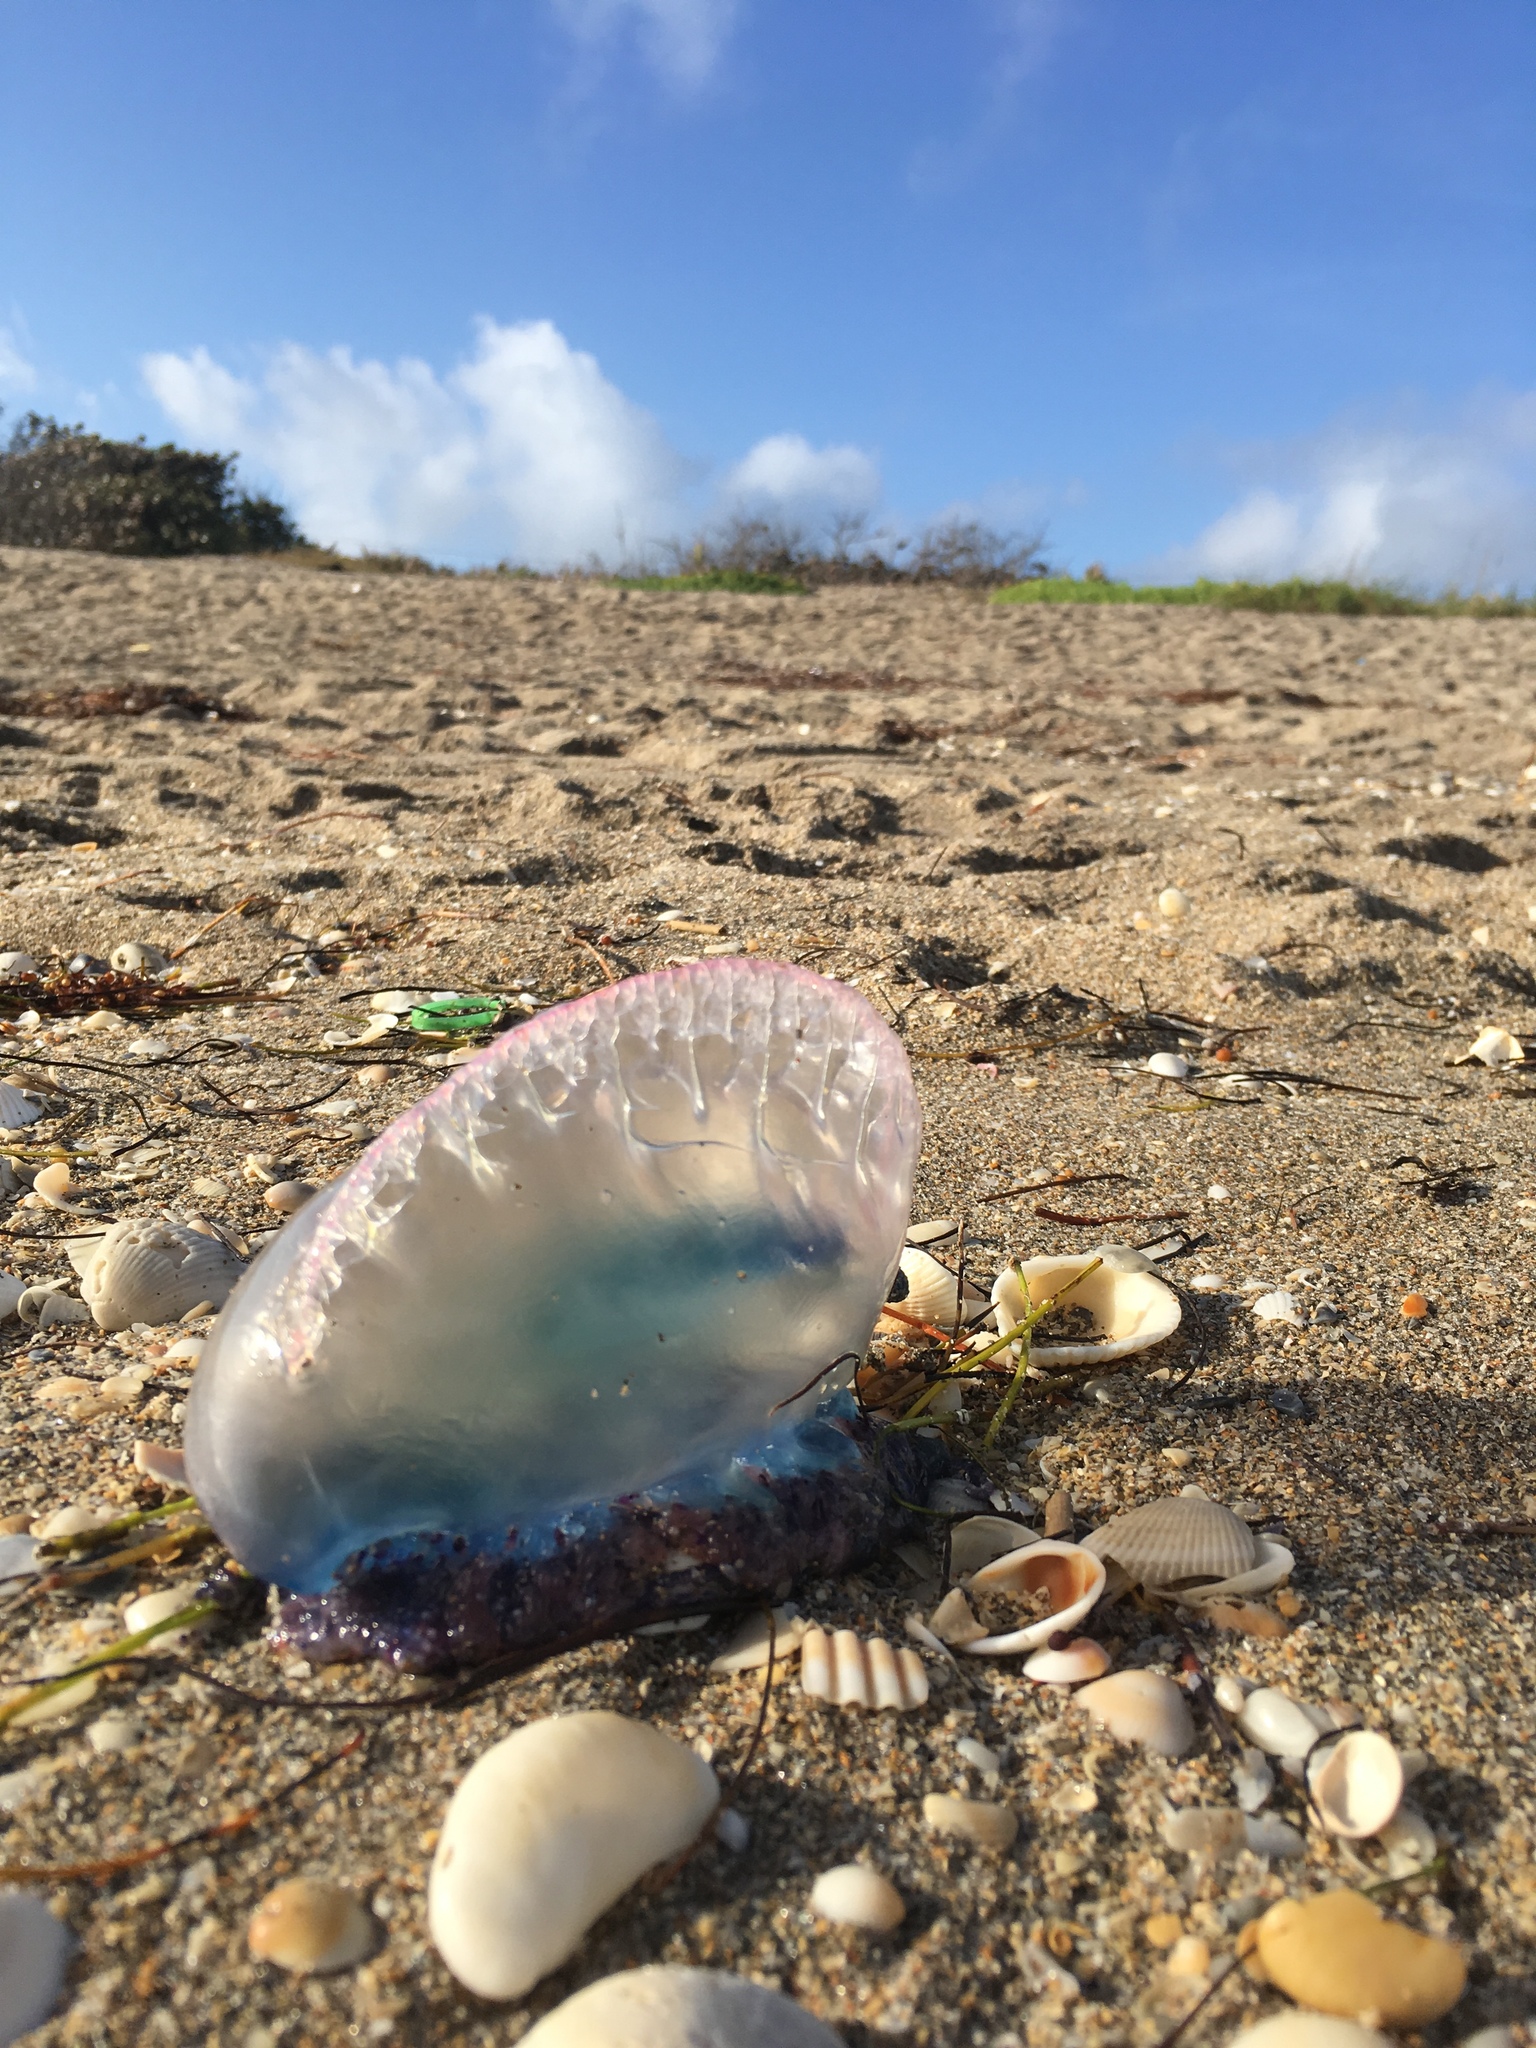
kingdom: Animalia
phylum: Cnidaria
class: Hydrozoa
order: Siphonophorae
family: Physaliidae
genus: Physalia
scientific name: Physalia physalis
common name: Portuguese man-of-war
